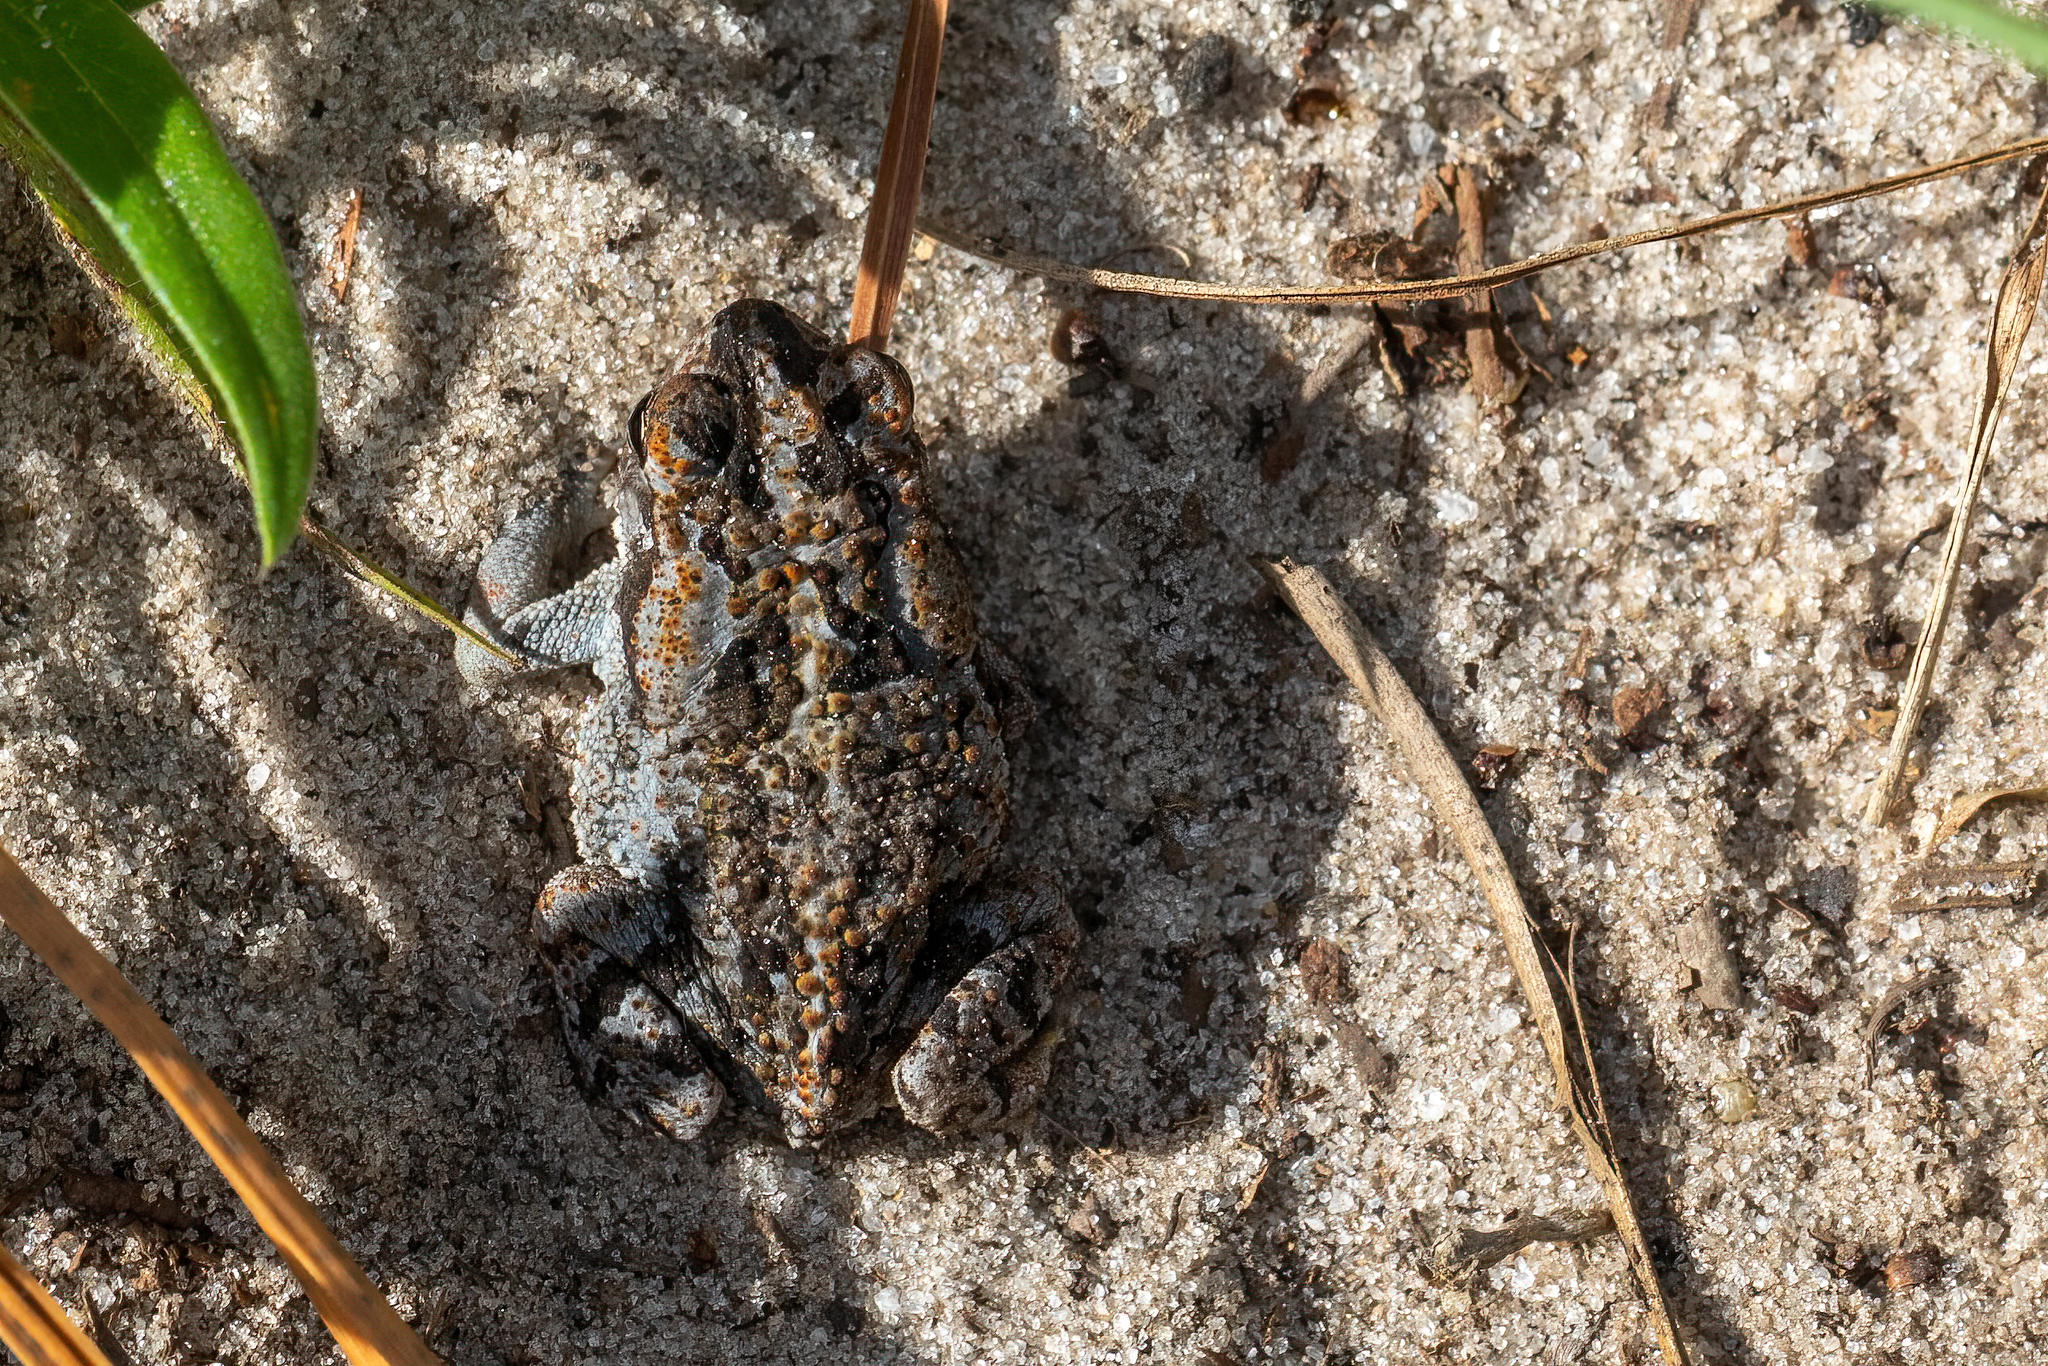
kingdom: Animalia
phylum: Chordata
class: Amphibia
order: Anura
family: Bufonidae
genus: Anaxyrus
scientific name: Anaxyrus terrestris
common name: Southern toad
